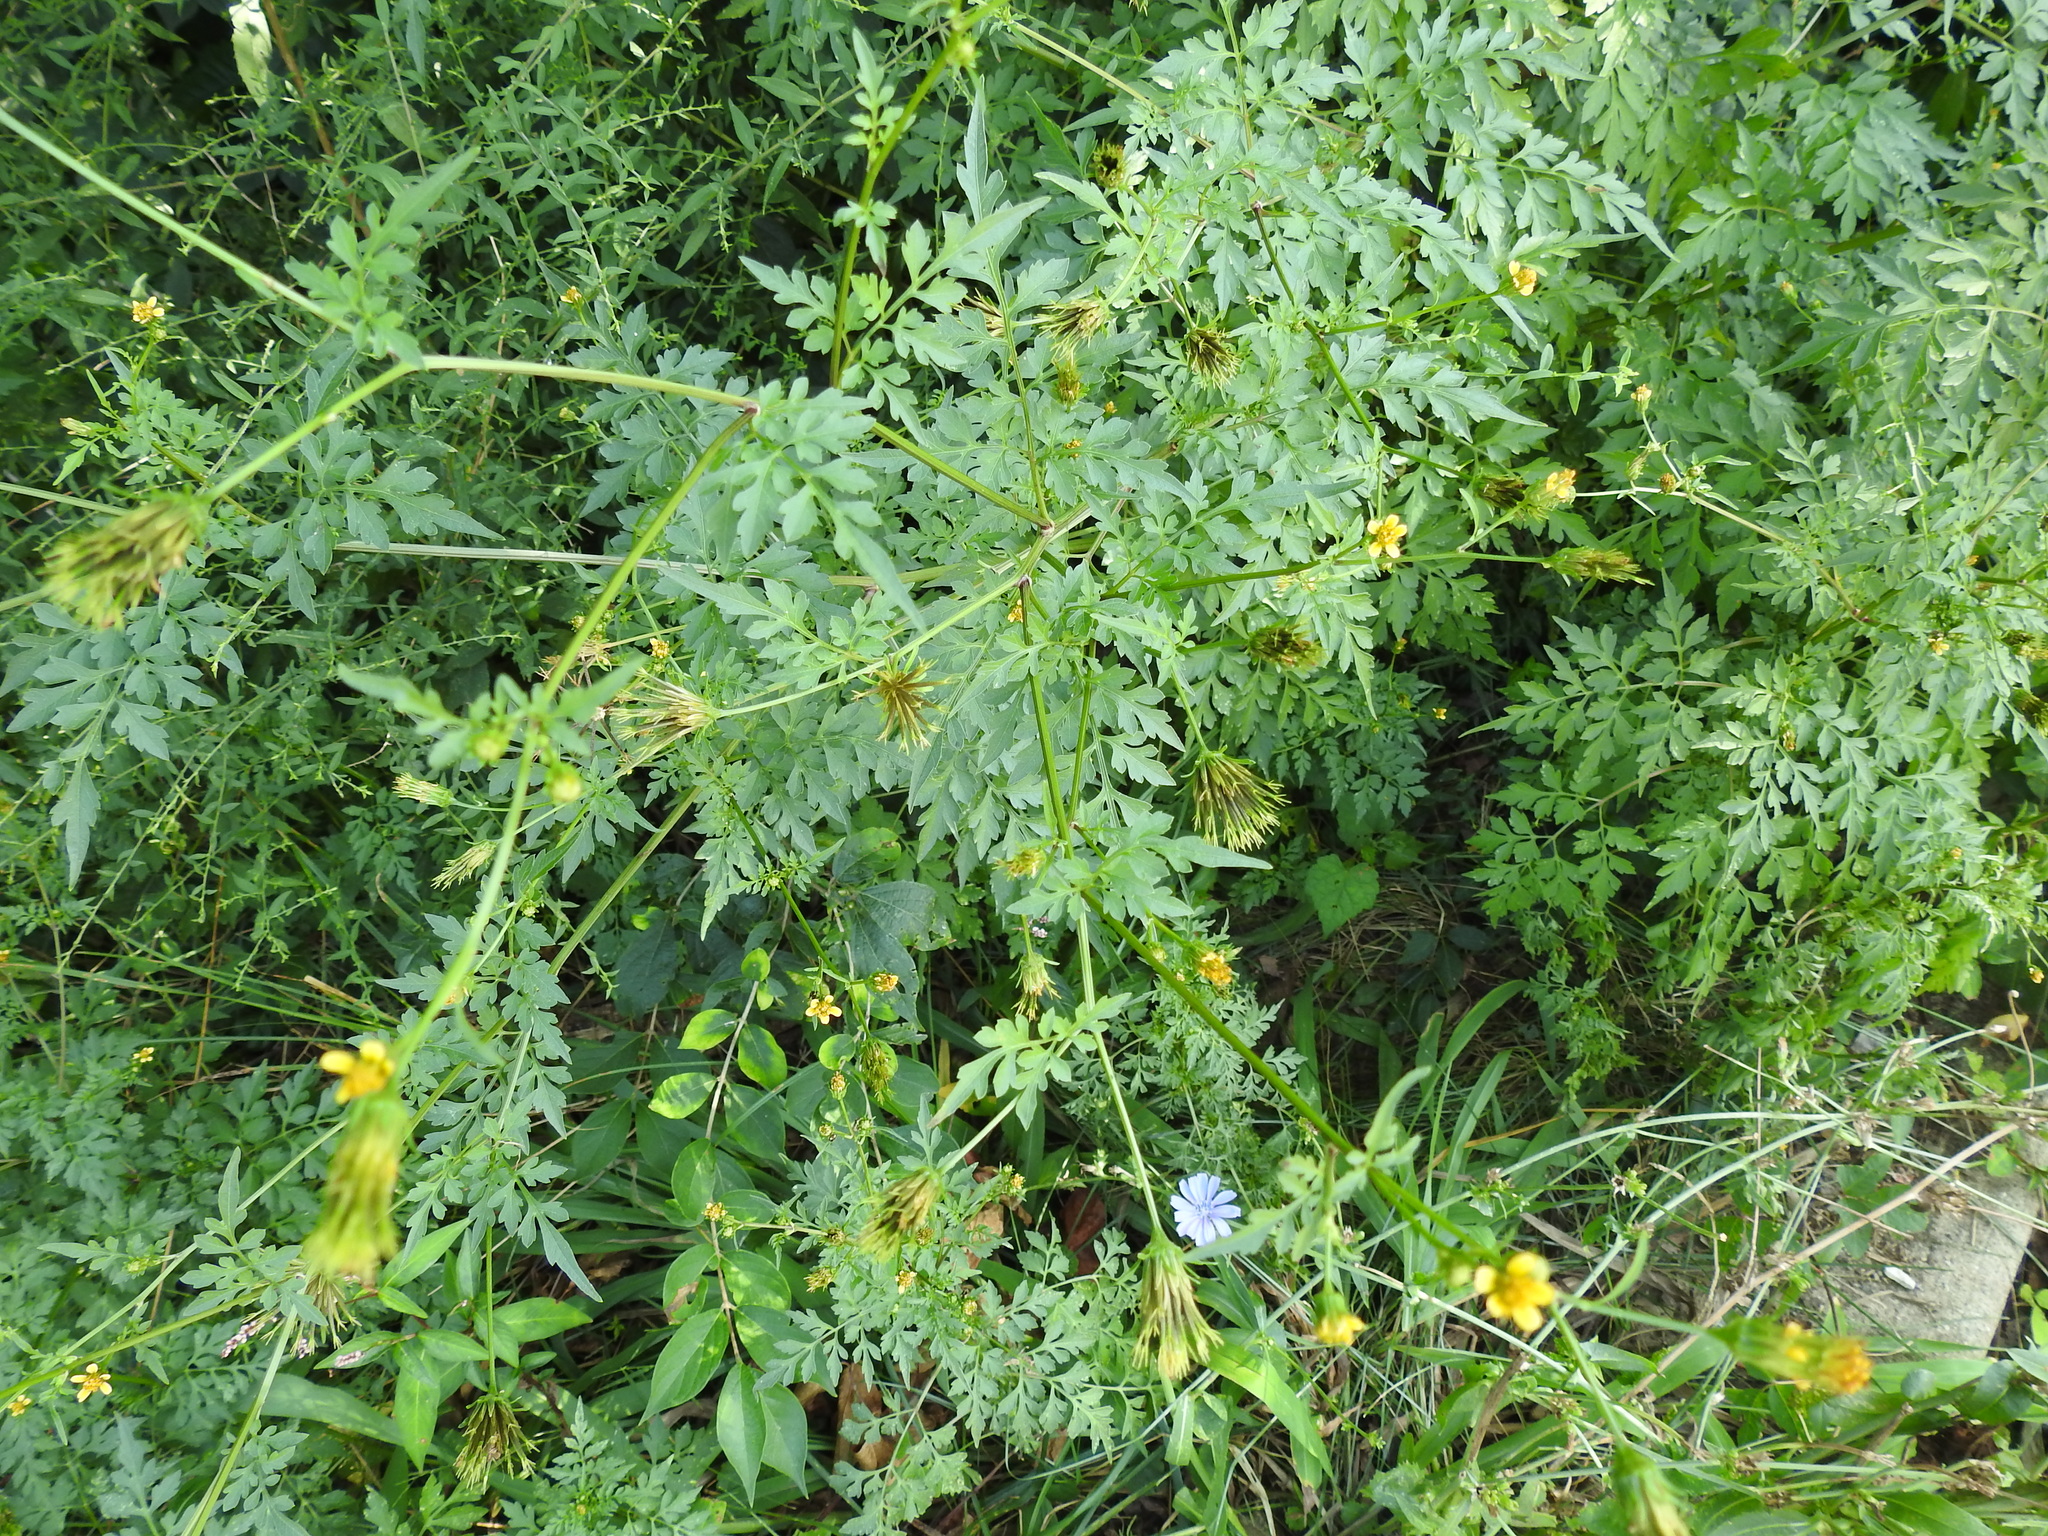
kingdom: Plantae
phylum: Tracheophyta
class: Magnoliopsida
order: Asterales
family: Asteraceae
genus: Bidens
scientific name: Bidens bipinnata
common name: Spanish-needles
